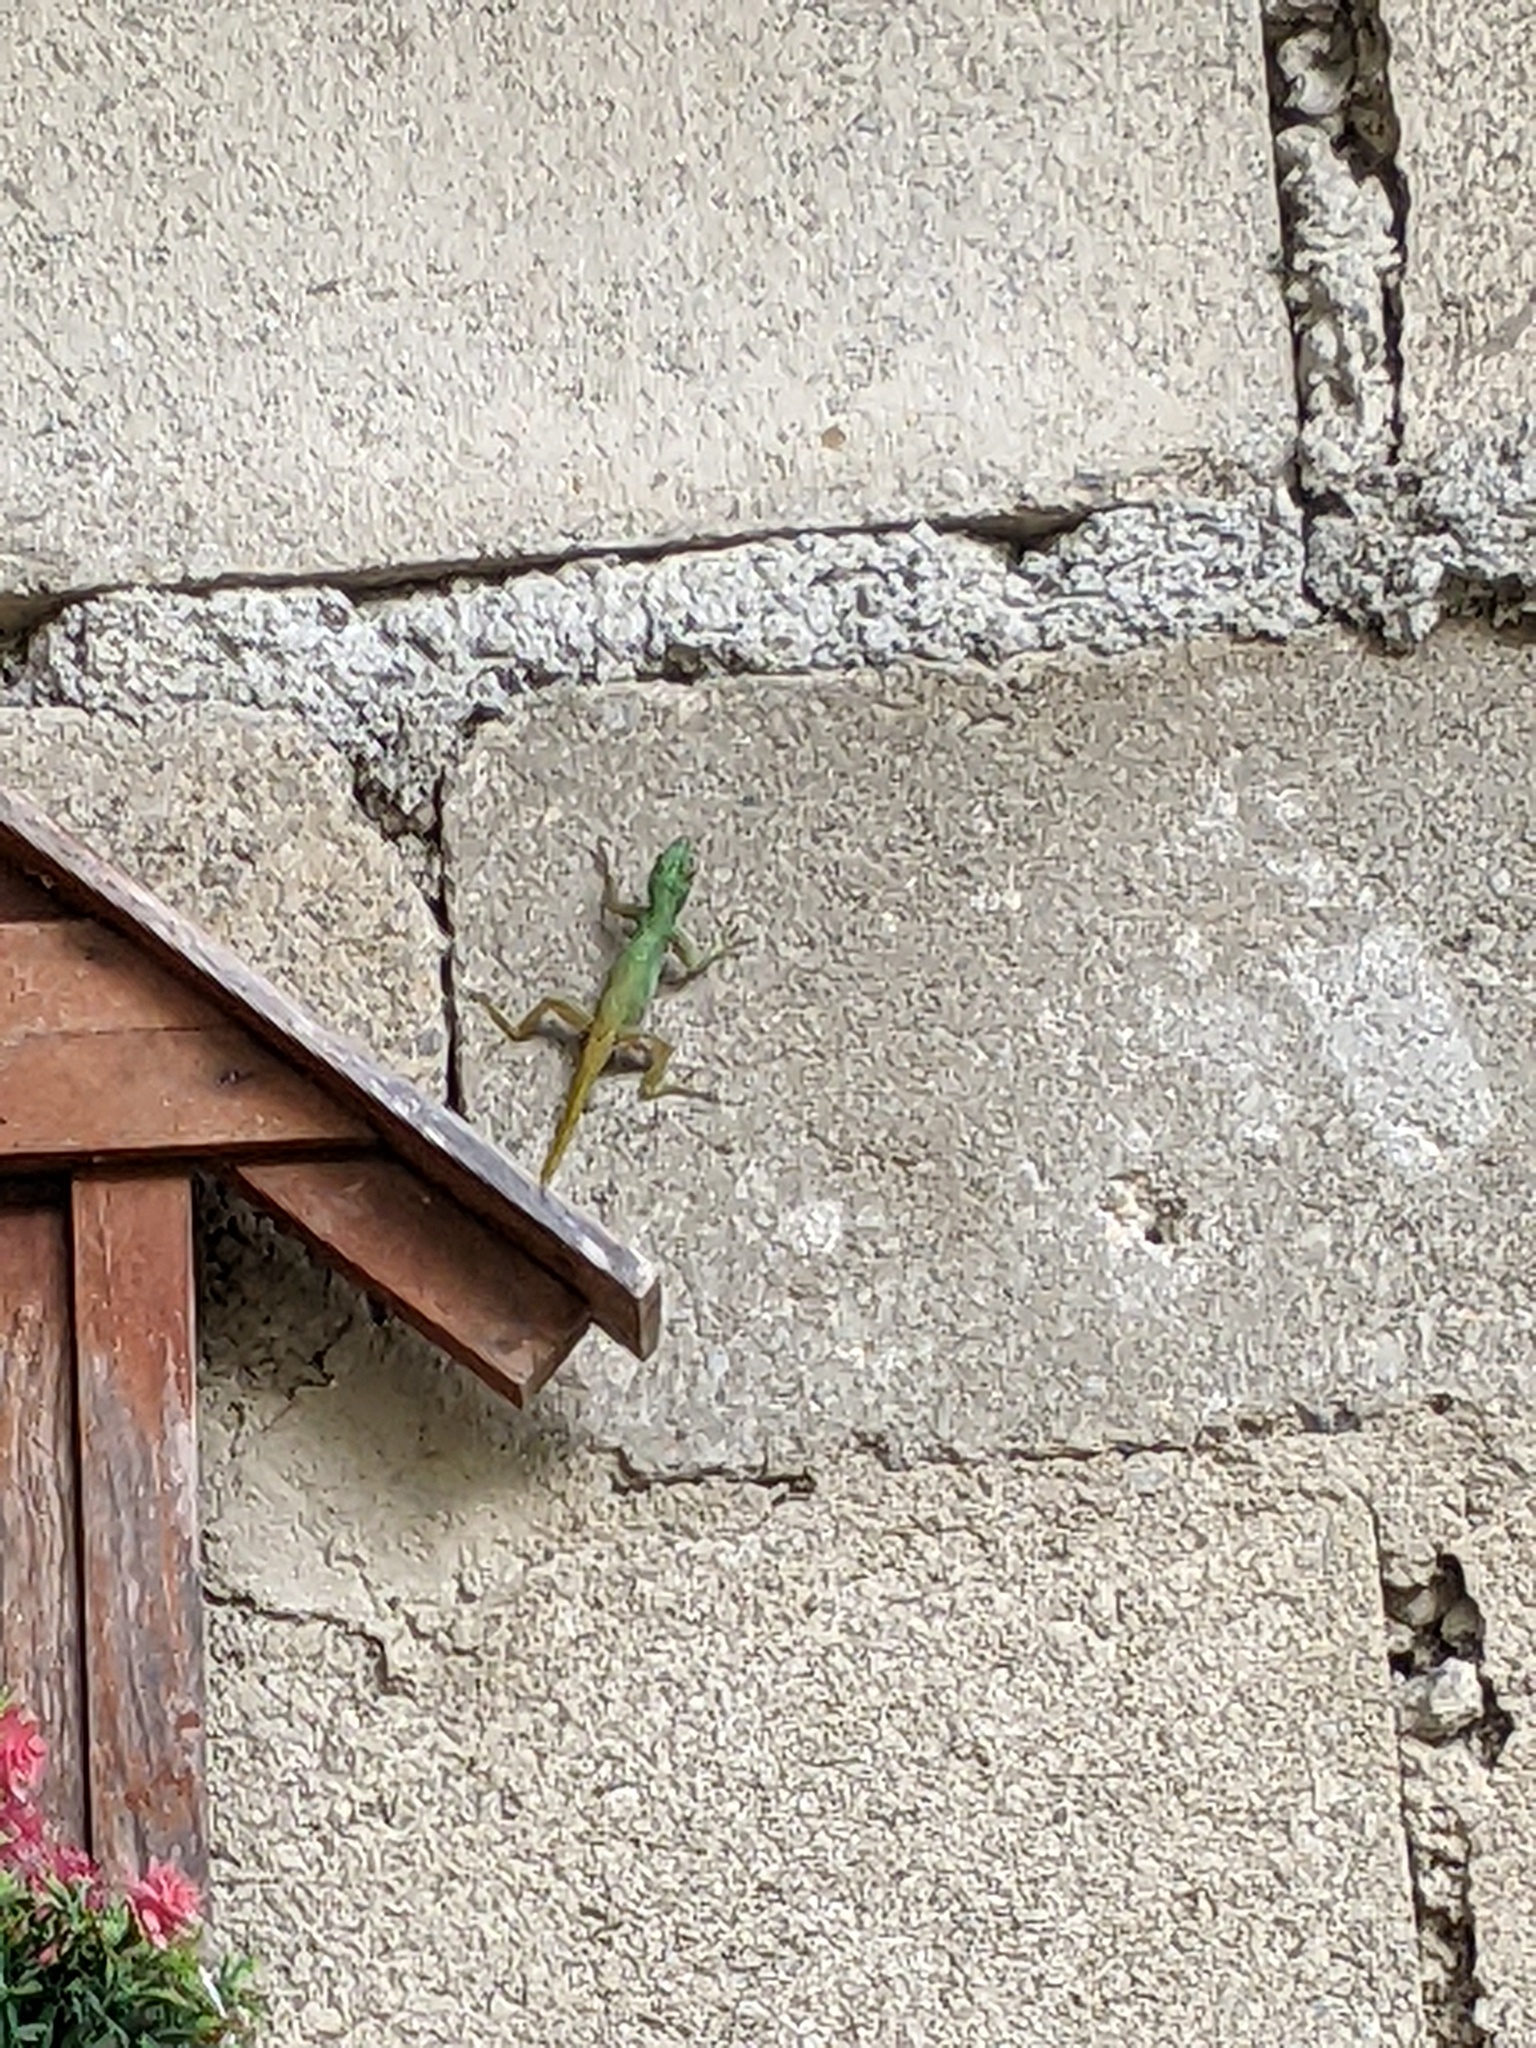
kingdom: Animalia
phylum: Chordata
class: Squamata
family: Dactyloidae
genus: Anolis
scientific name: Anolis distichus
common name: Bark anole
